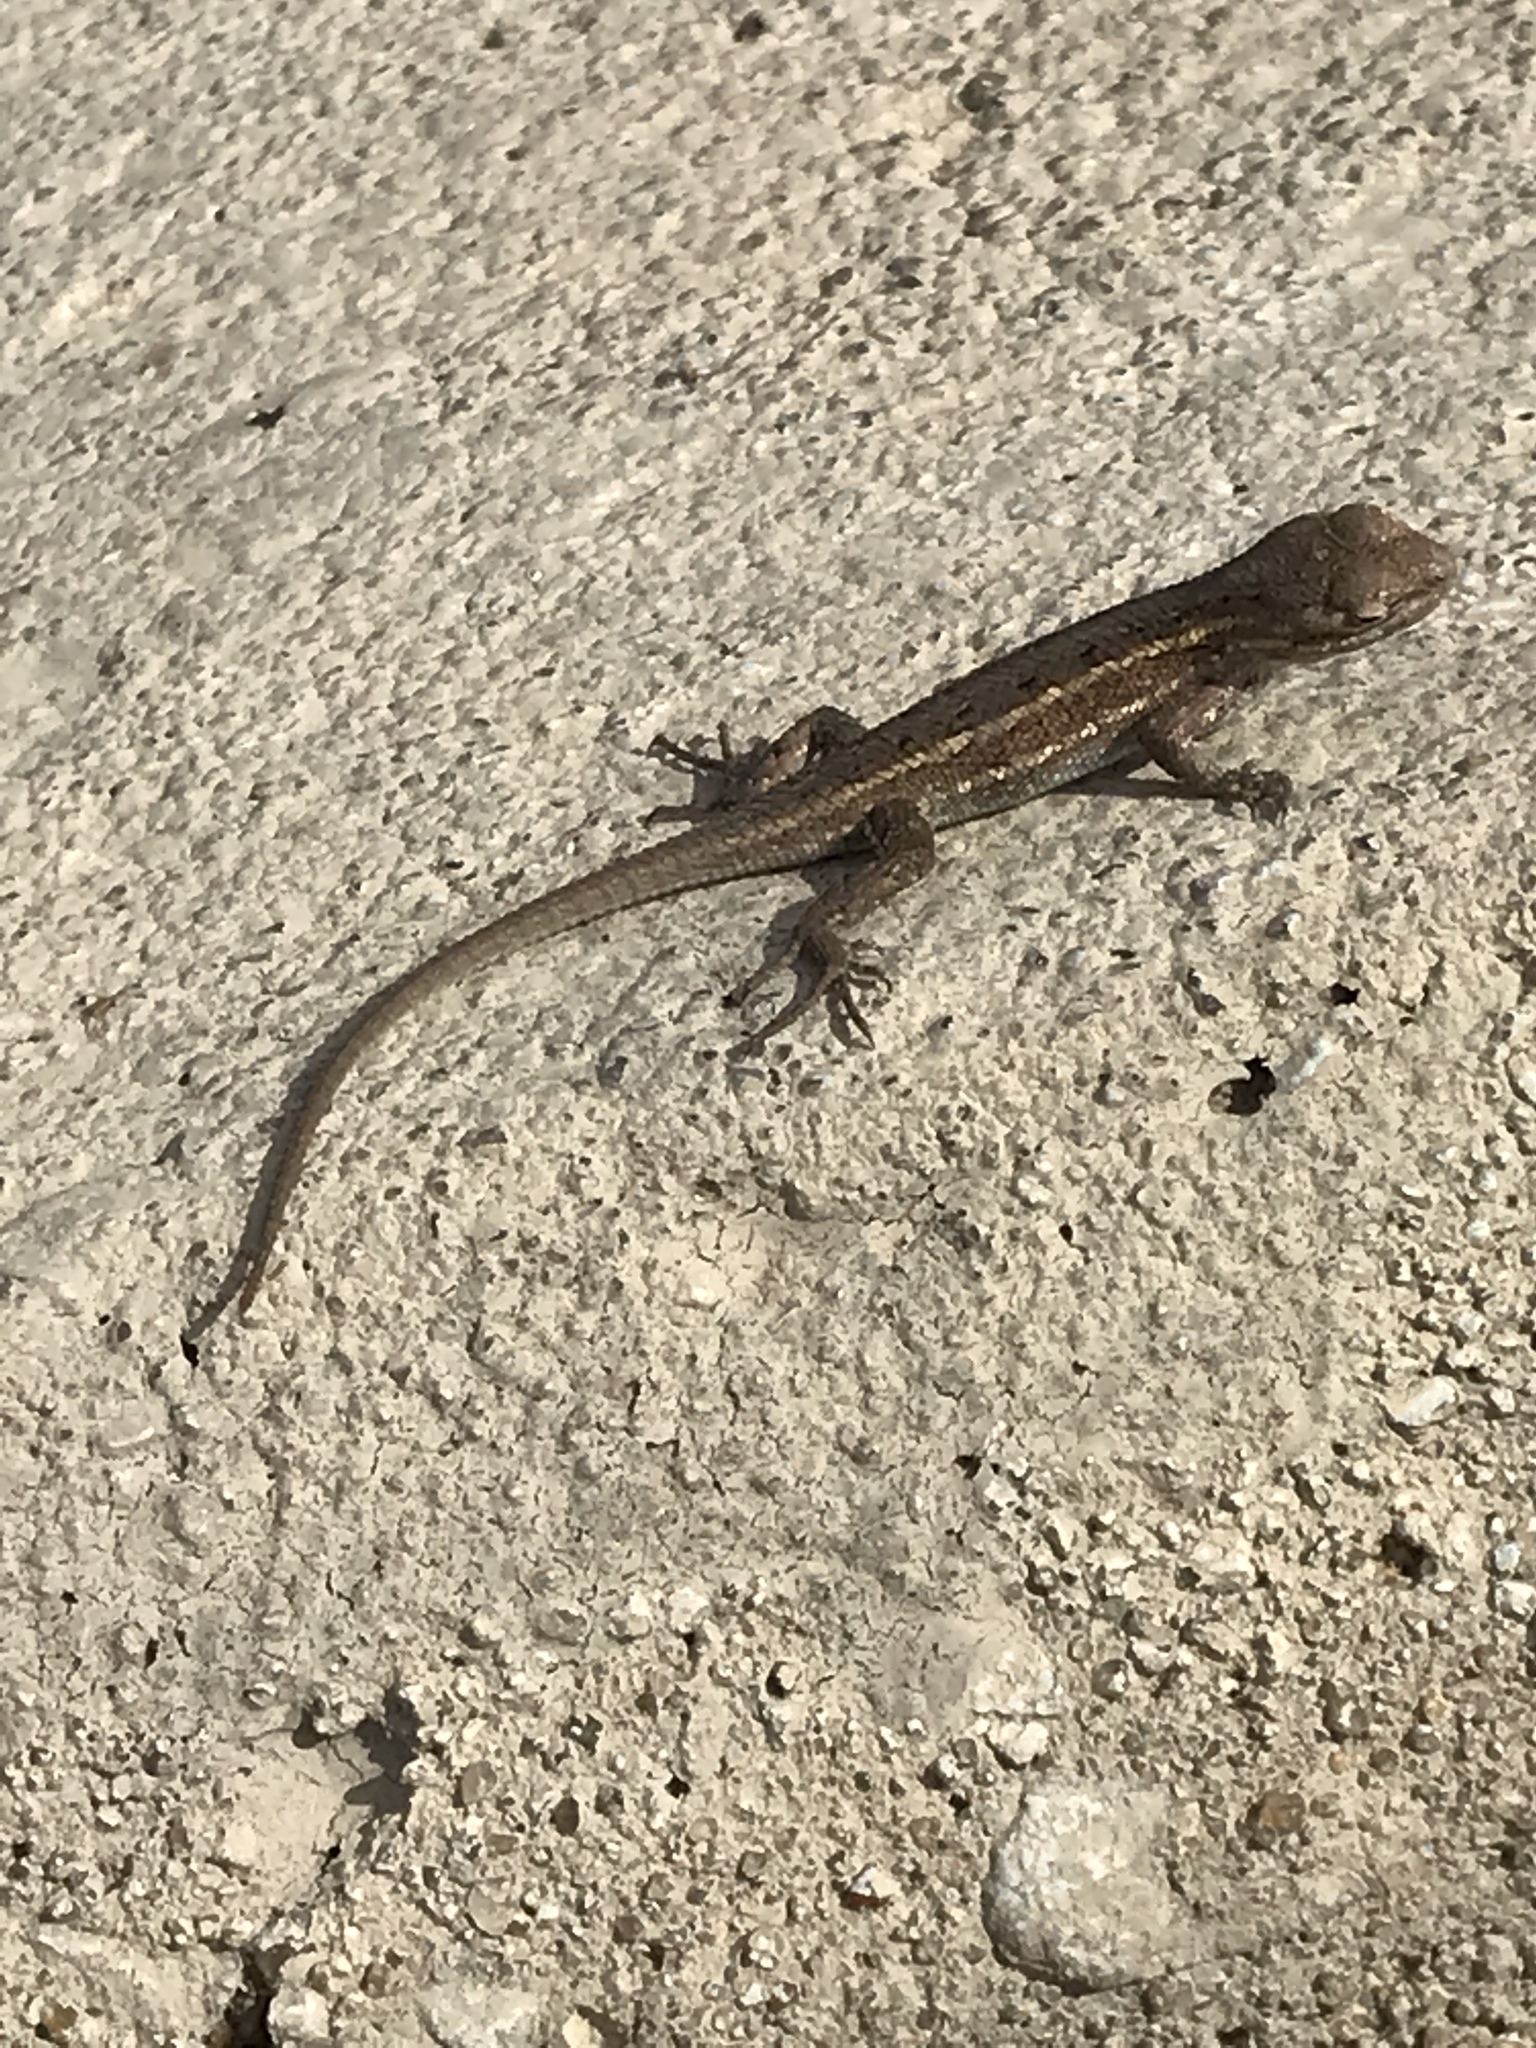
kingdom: Animalia
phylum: Chordata
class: Squamata
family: Phrynosomatidae
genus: Sceloporus
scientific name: Sceloporus consobrinus
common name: Southern prairie lizard
